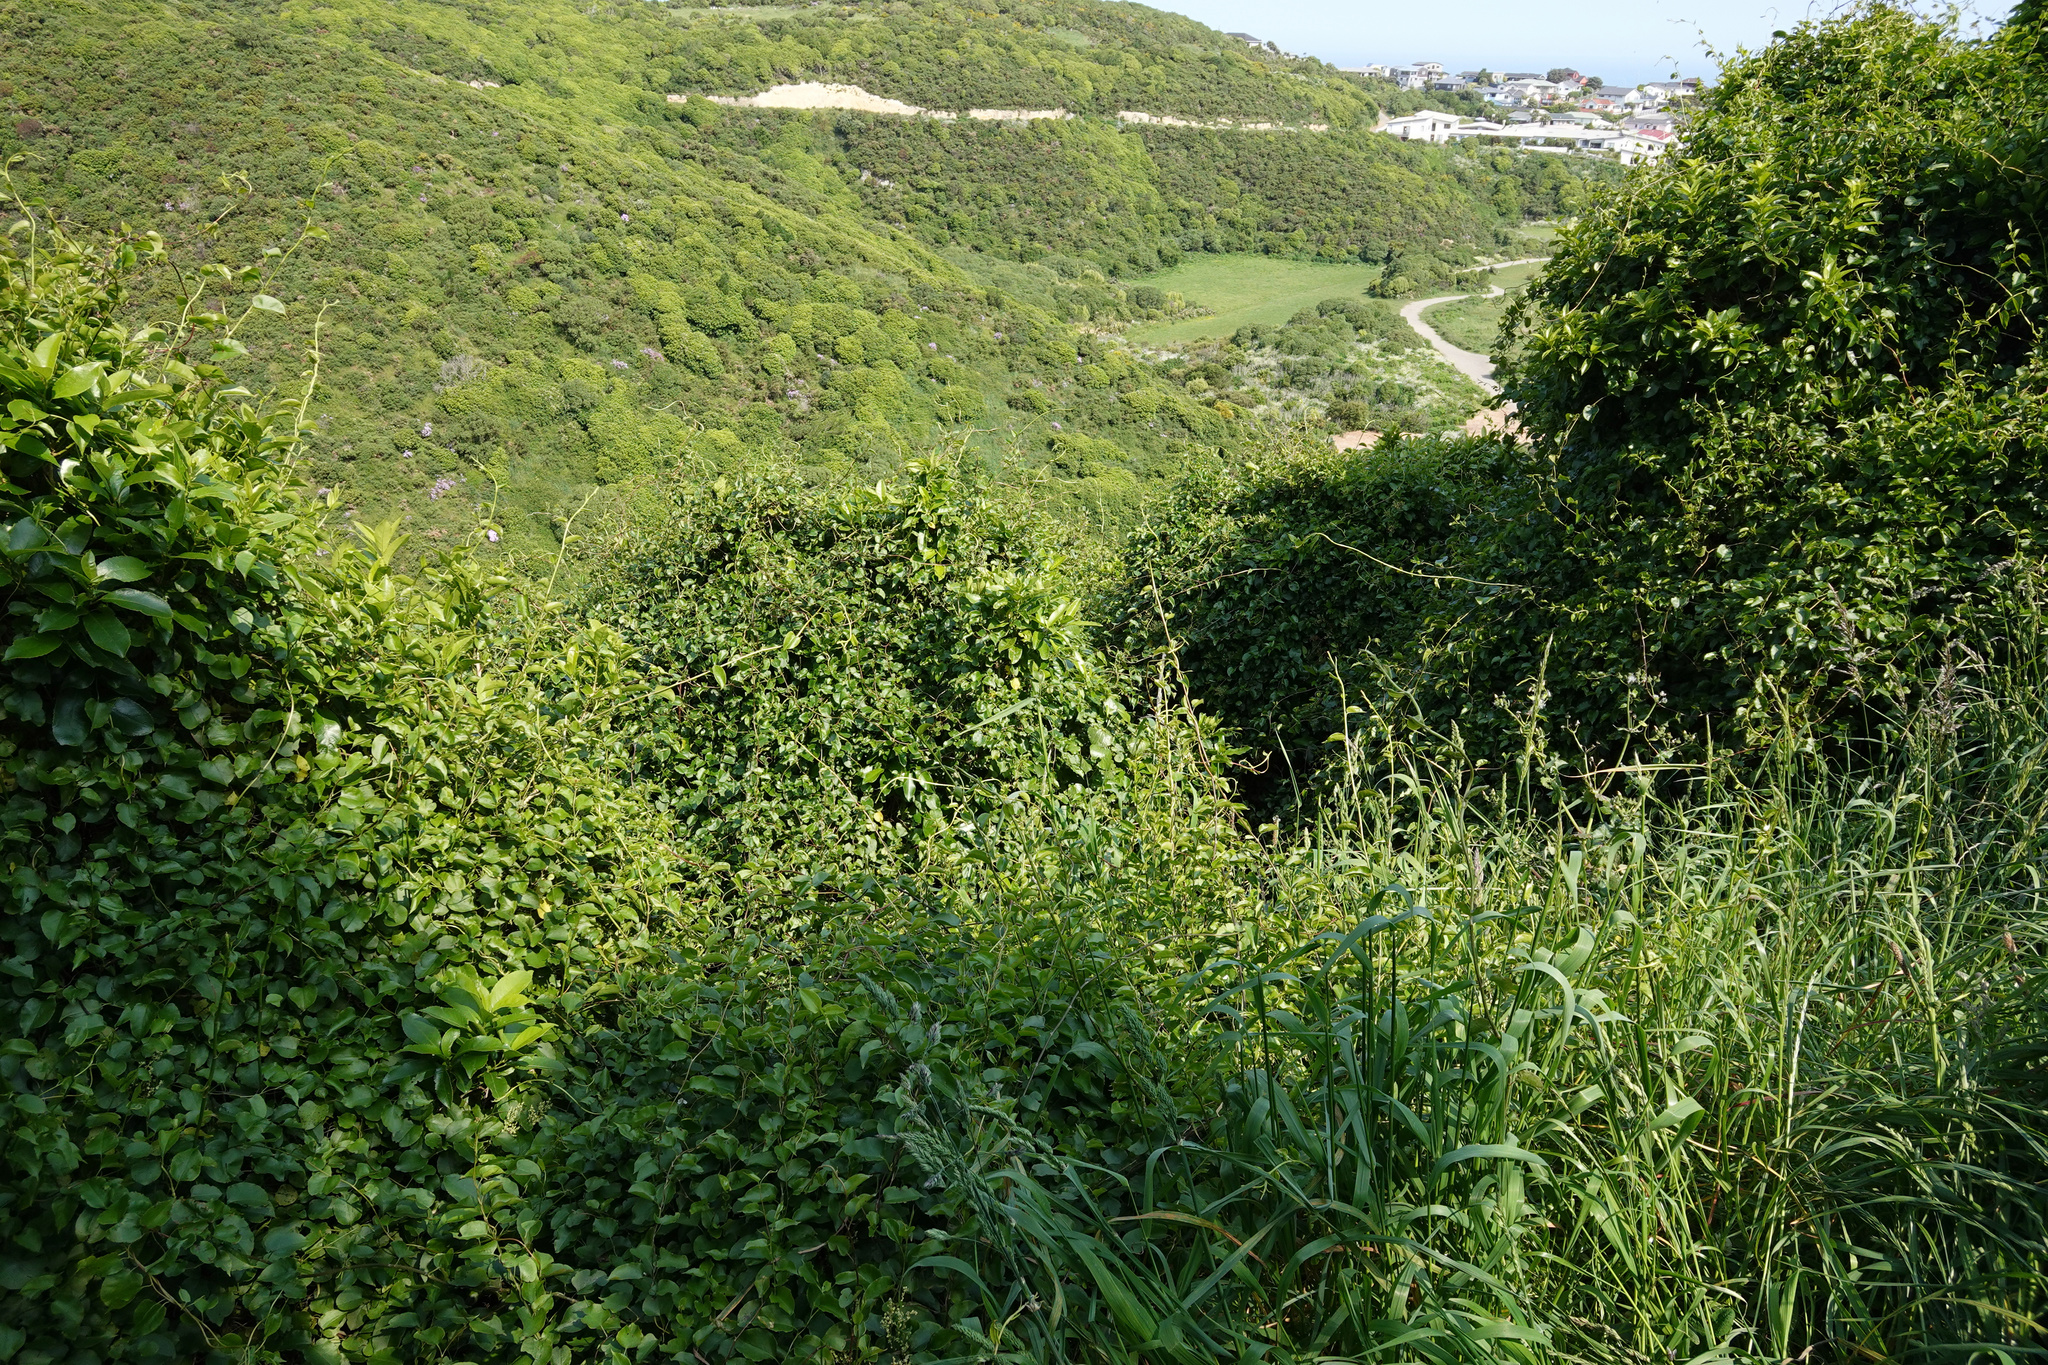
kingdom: Plantae
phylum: Tracheophyta
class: Magnoliopsida
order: Caryophyllales
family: Polygonaceae
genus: Muehlenbeckia
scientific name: Muehlenbeckia australis
